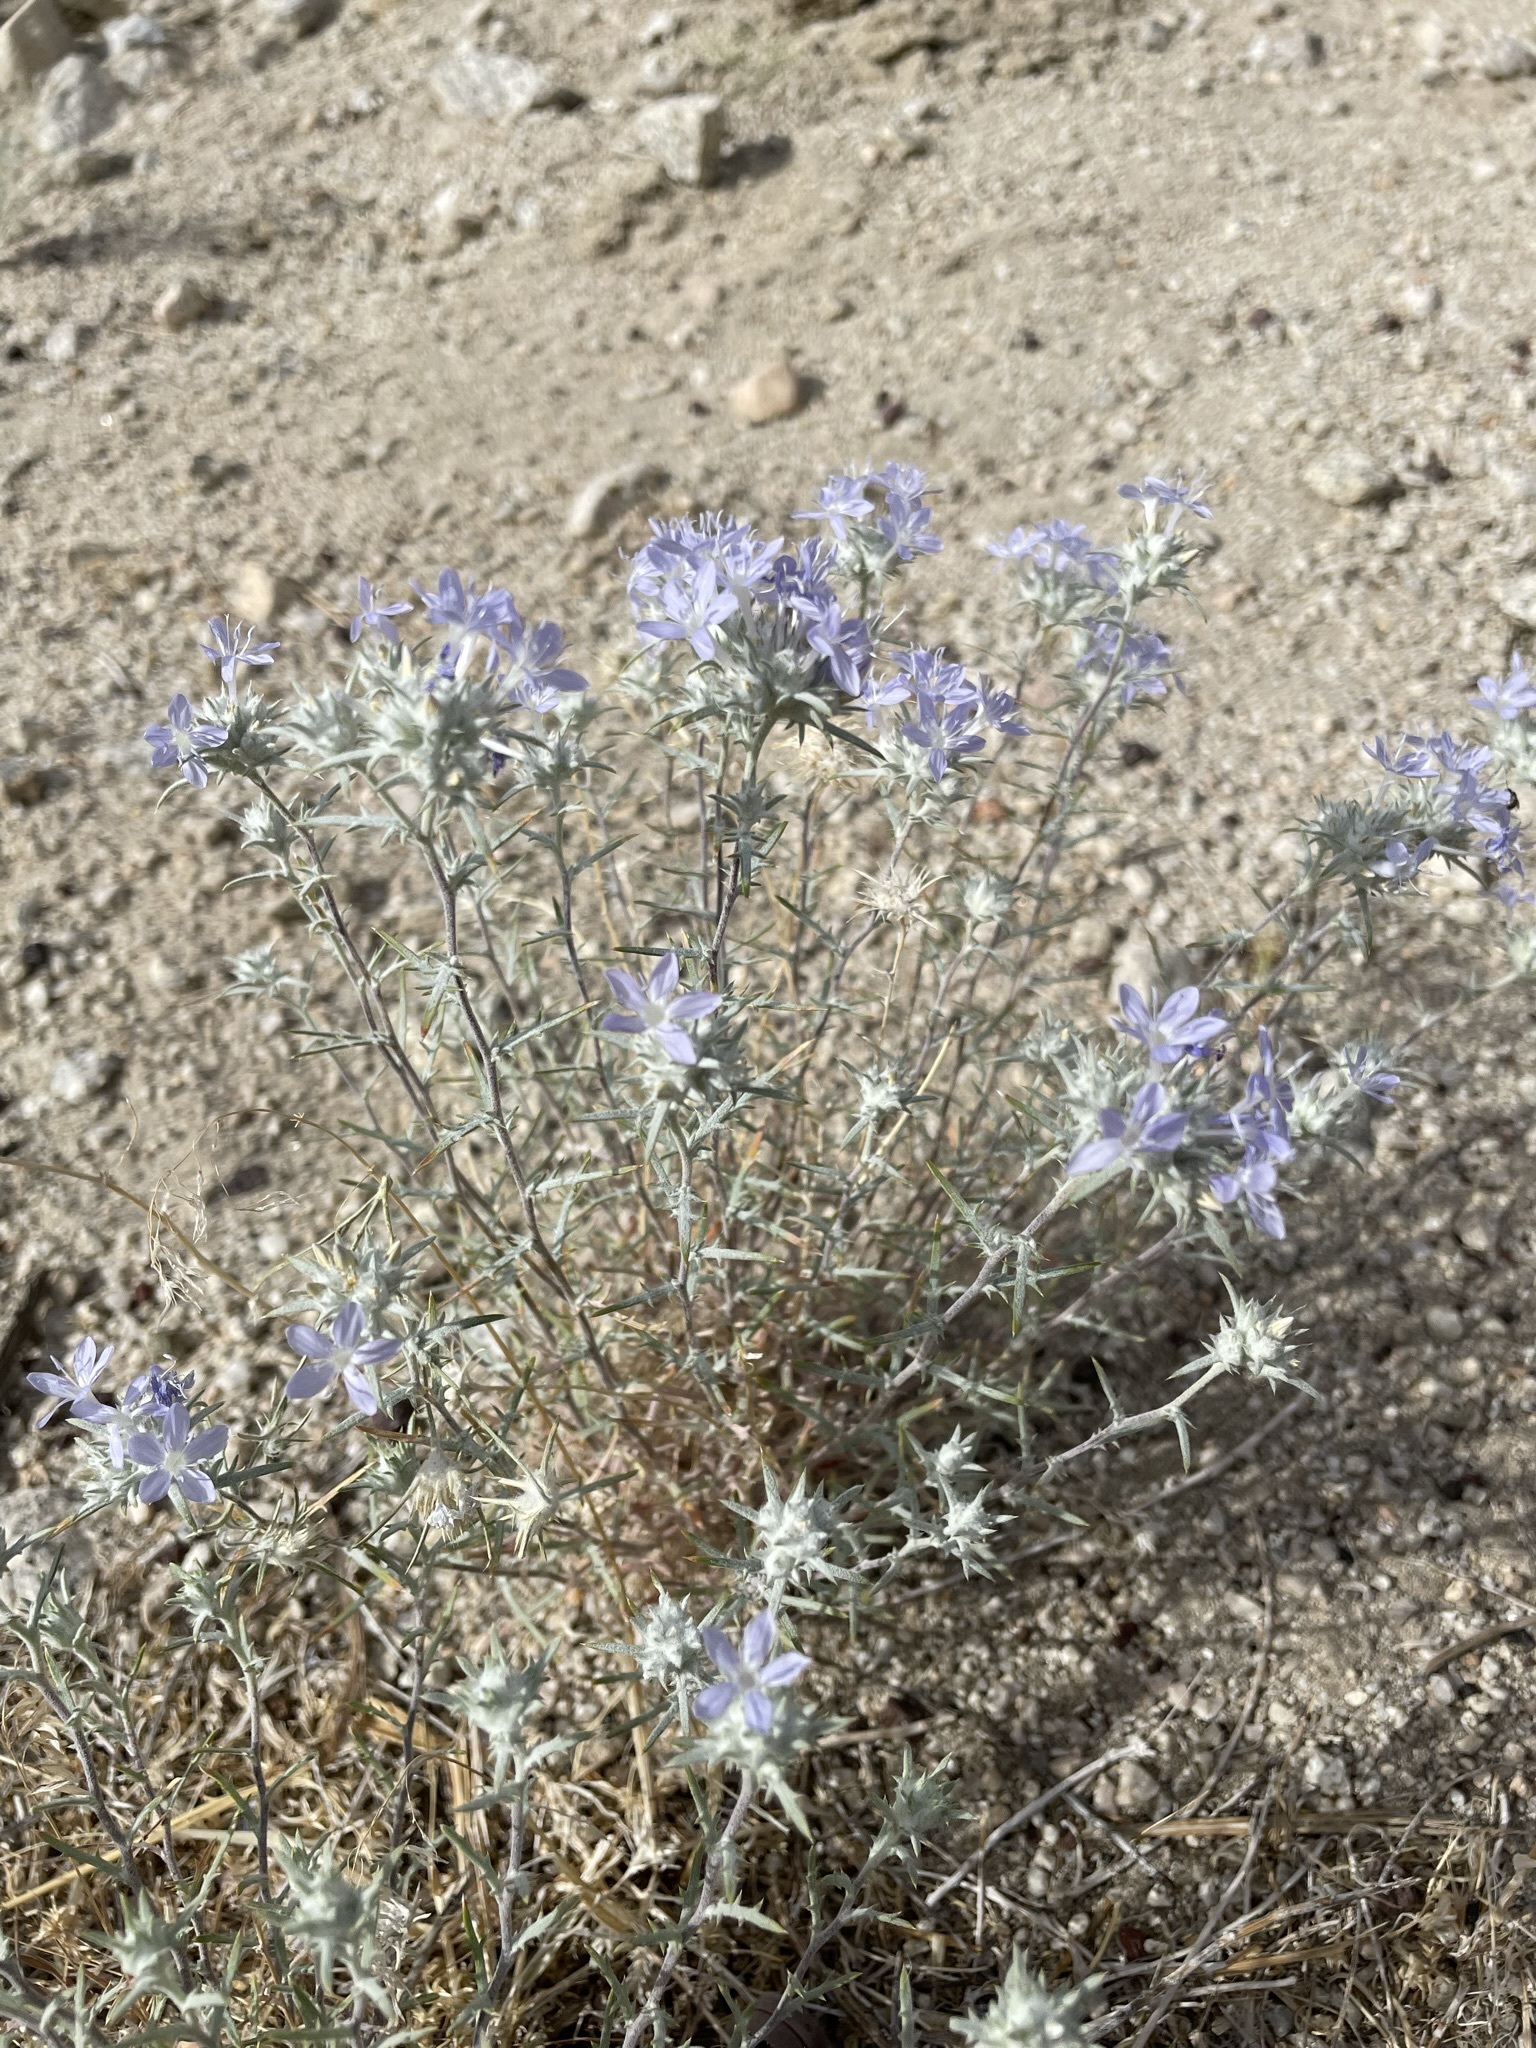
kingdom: Plantae
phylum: Tracheophyta
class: Magnoliopsida
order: Ericales
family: Polemoniaceae
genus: Eriastrum
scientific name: Eriastrum densifolium
